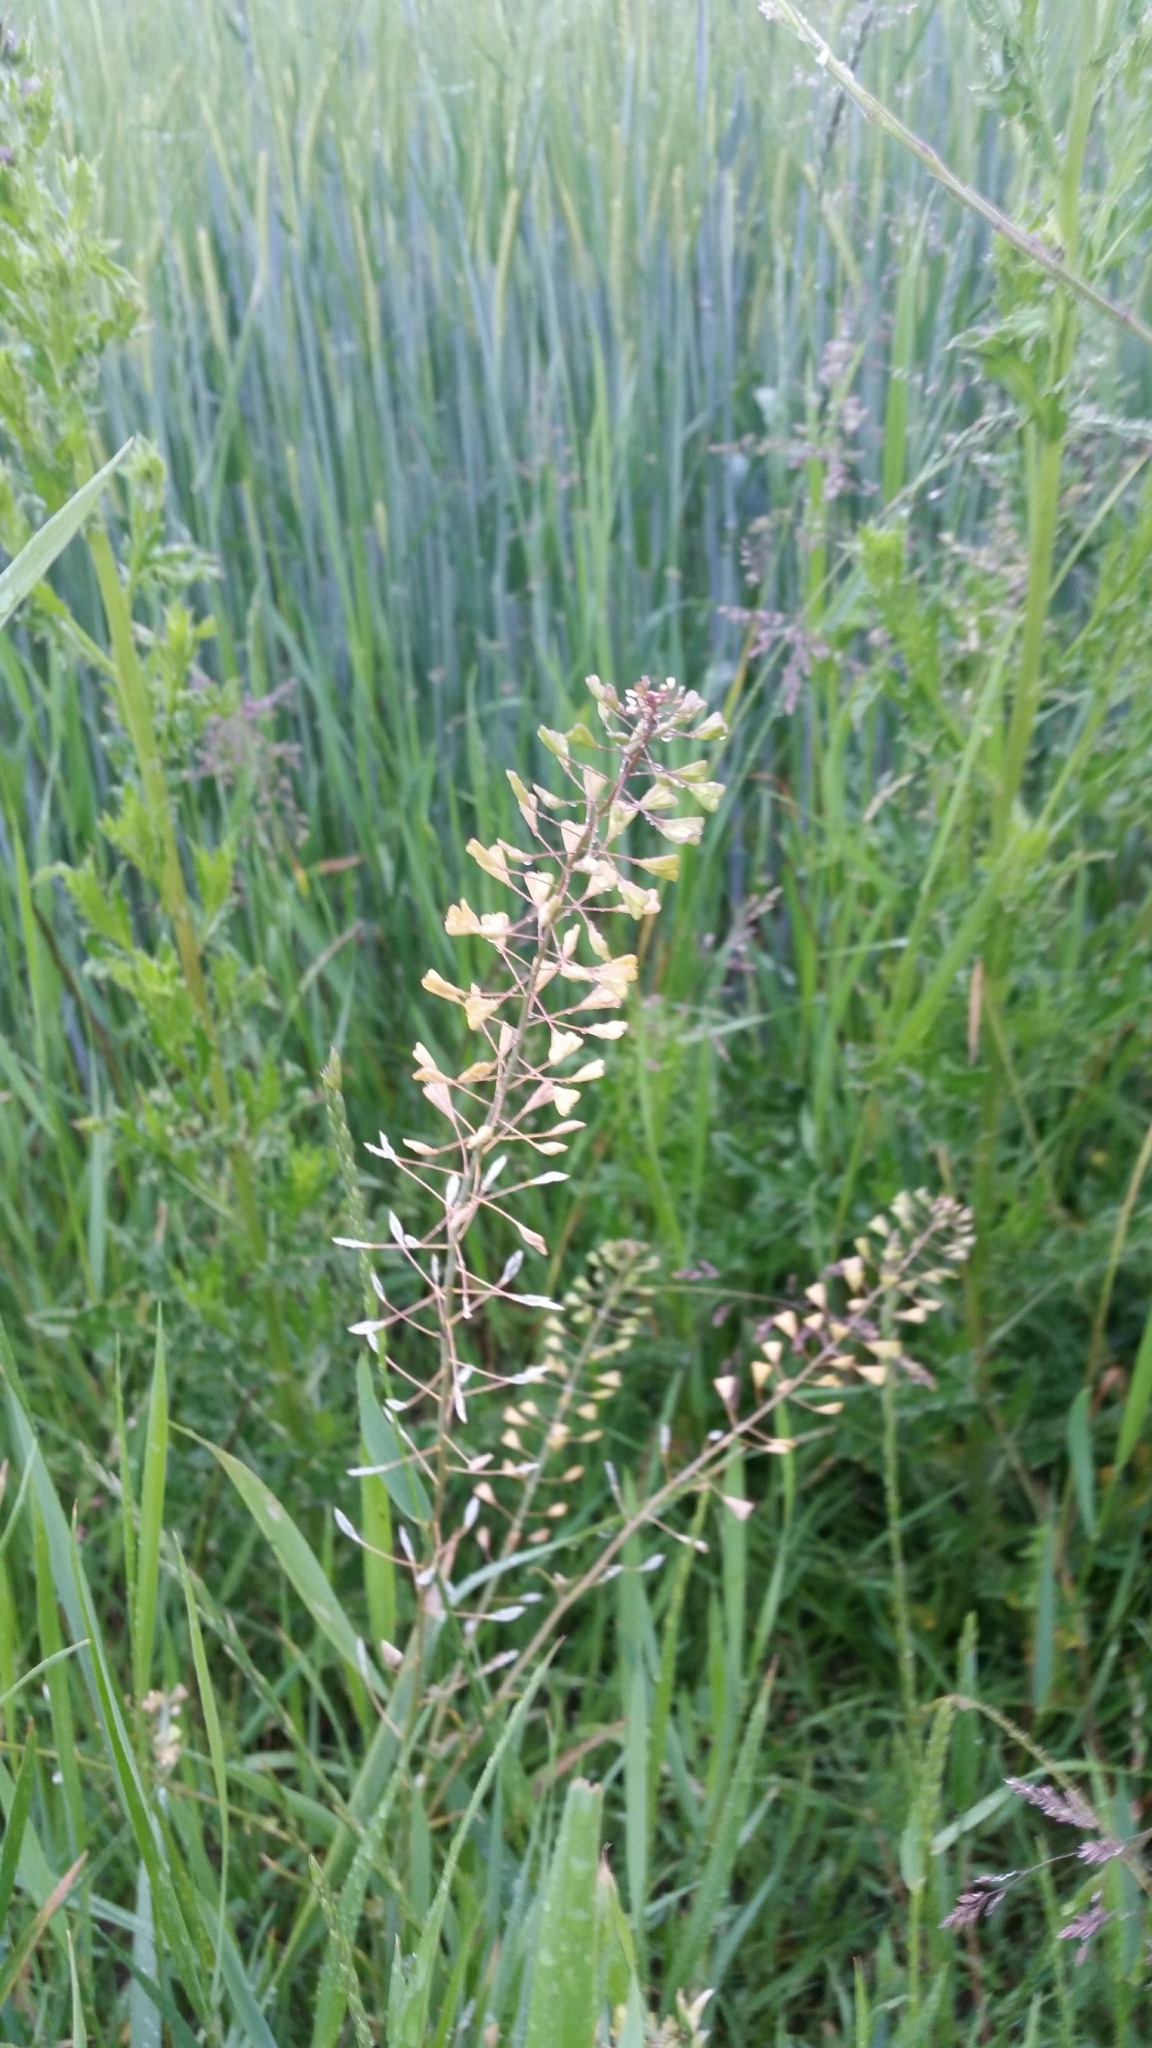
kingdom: Plantae
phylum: Tracheophyta
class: Magnoliopsida
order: Brassicales
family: Brassicaceae
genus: Capsella
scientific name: Capsella bursa-pastoris
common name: Shepherd's purse
